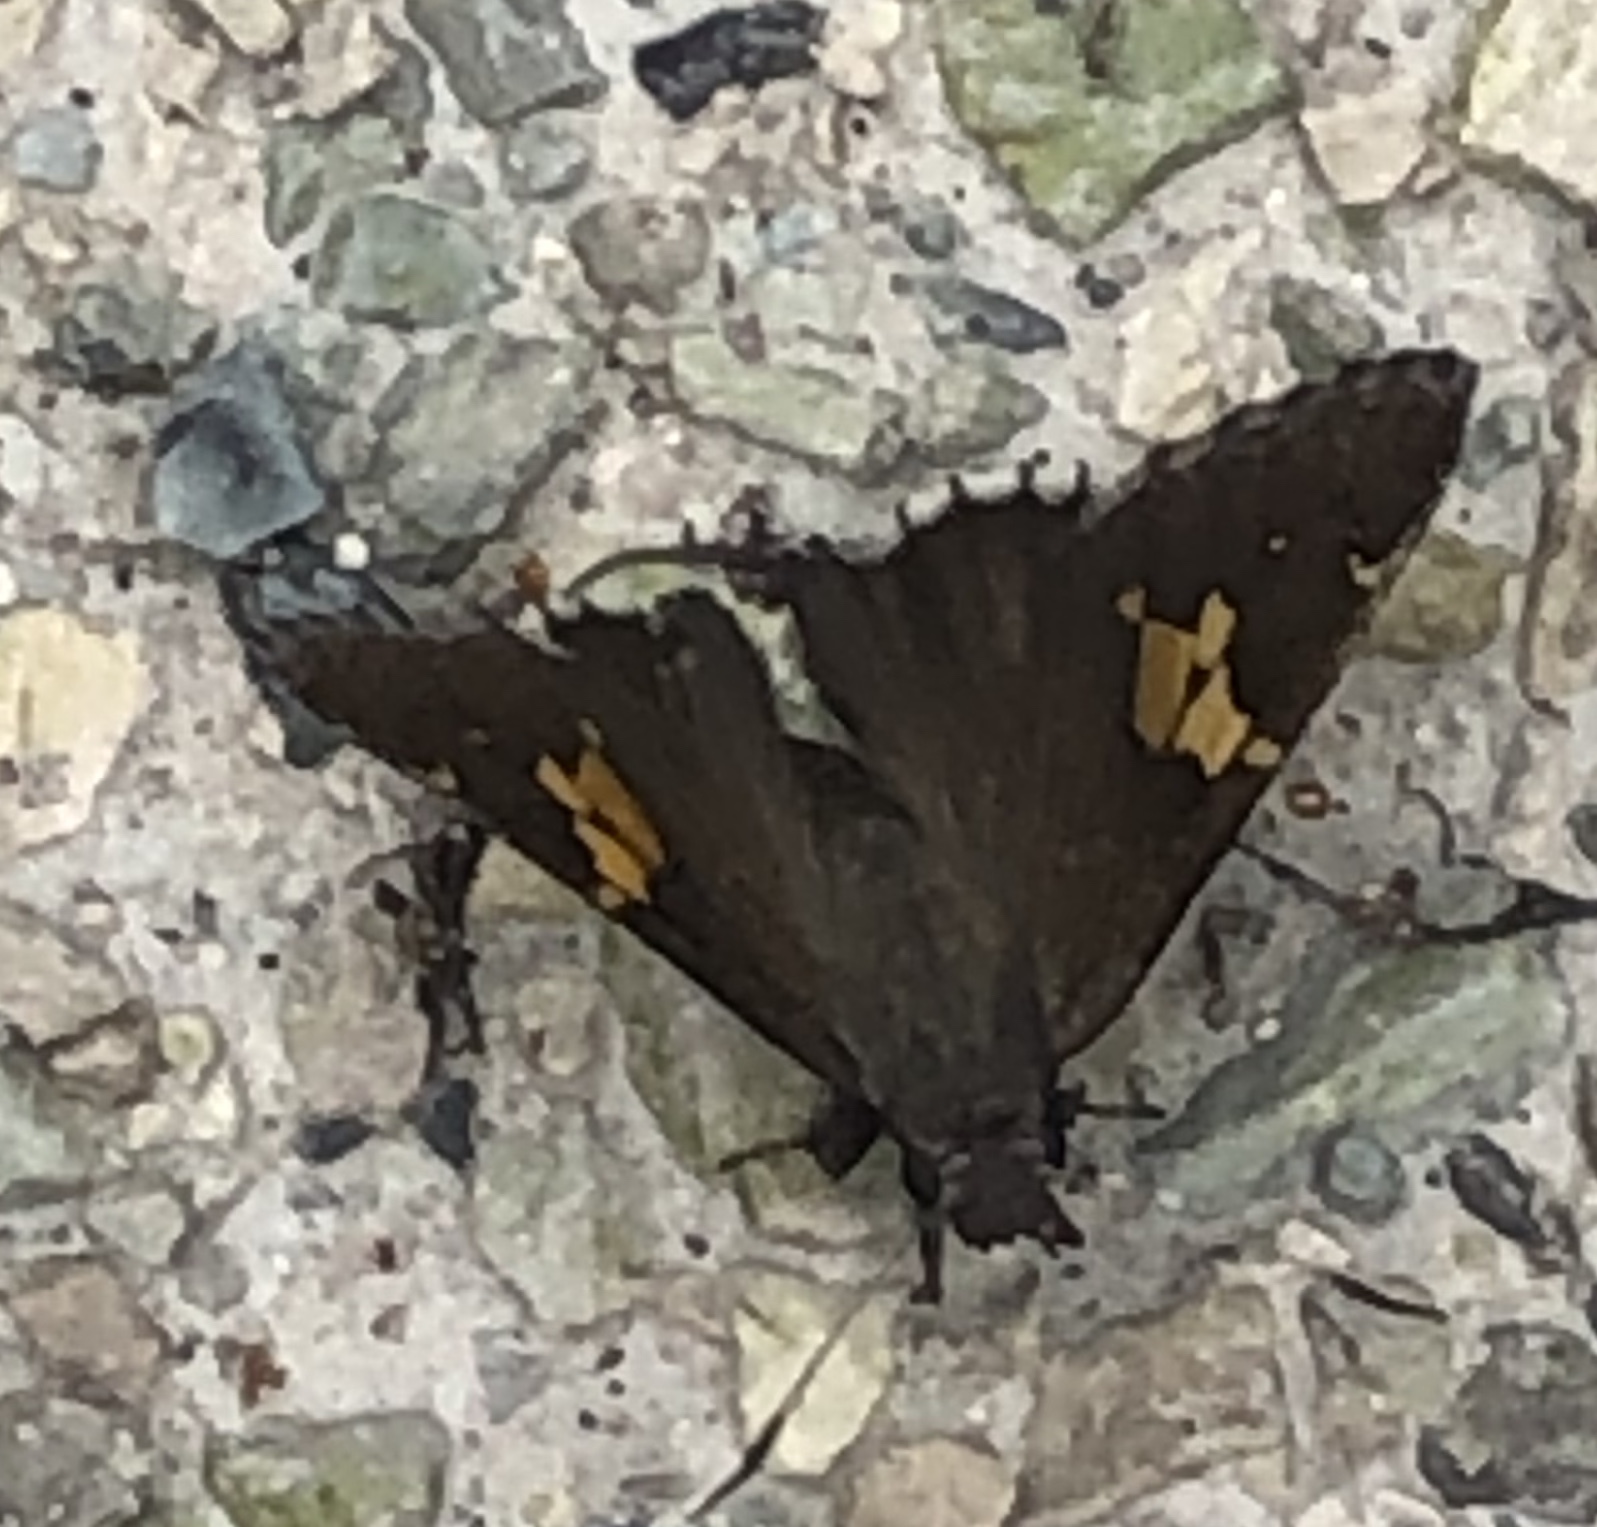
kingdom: Animalia
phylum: Arthropoda
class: Insecta
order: Lepidoptera
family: Hesperiidae
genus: Thorybes
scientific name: Thorybes lyciades
